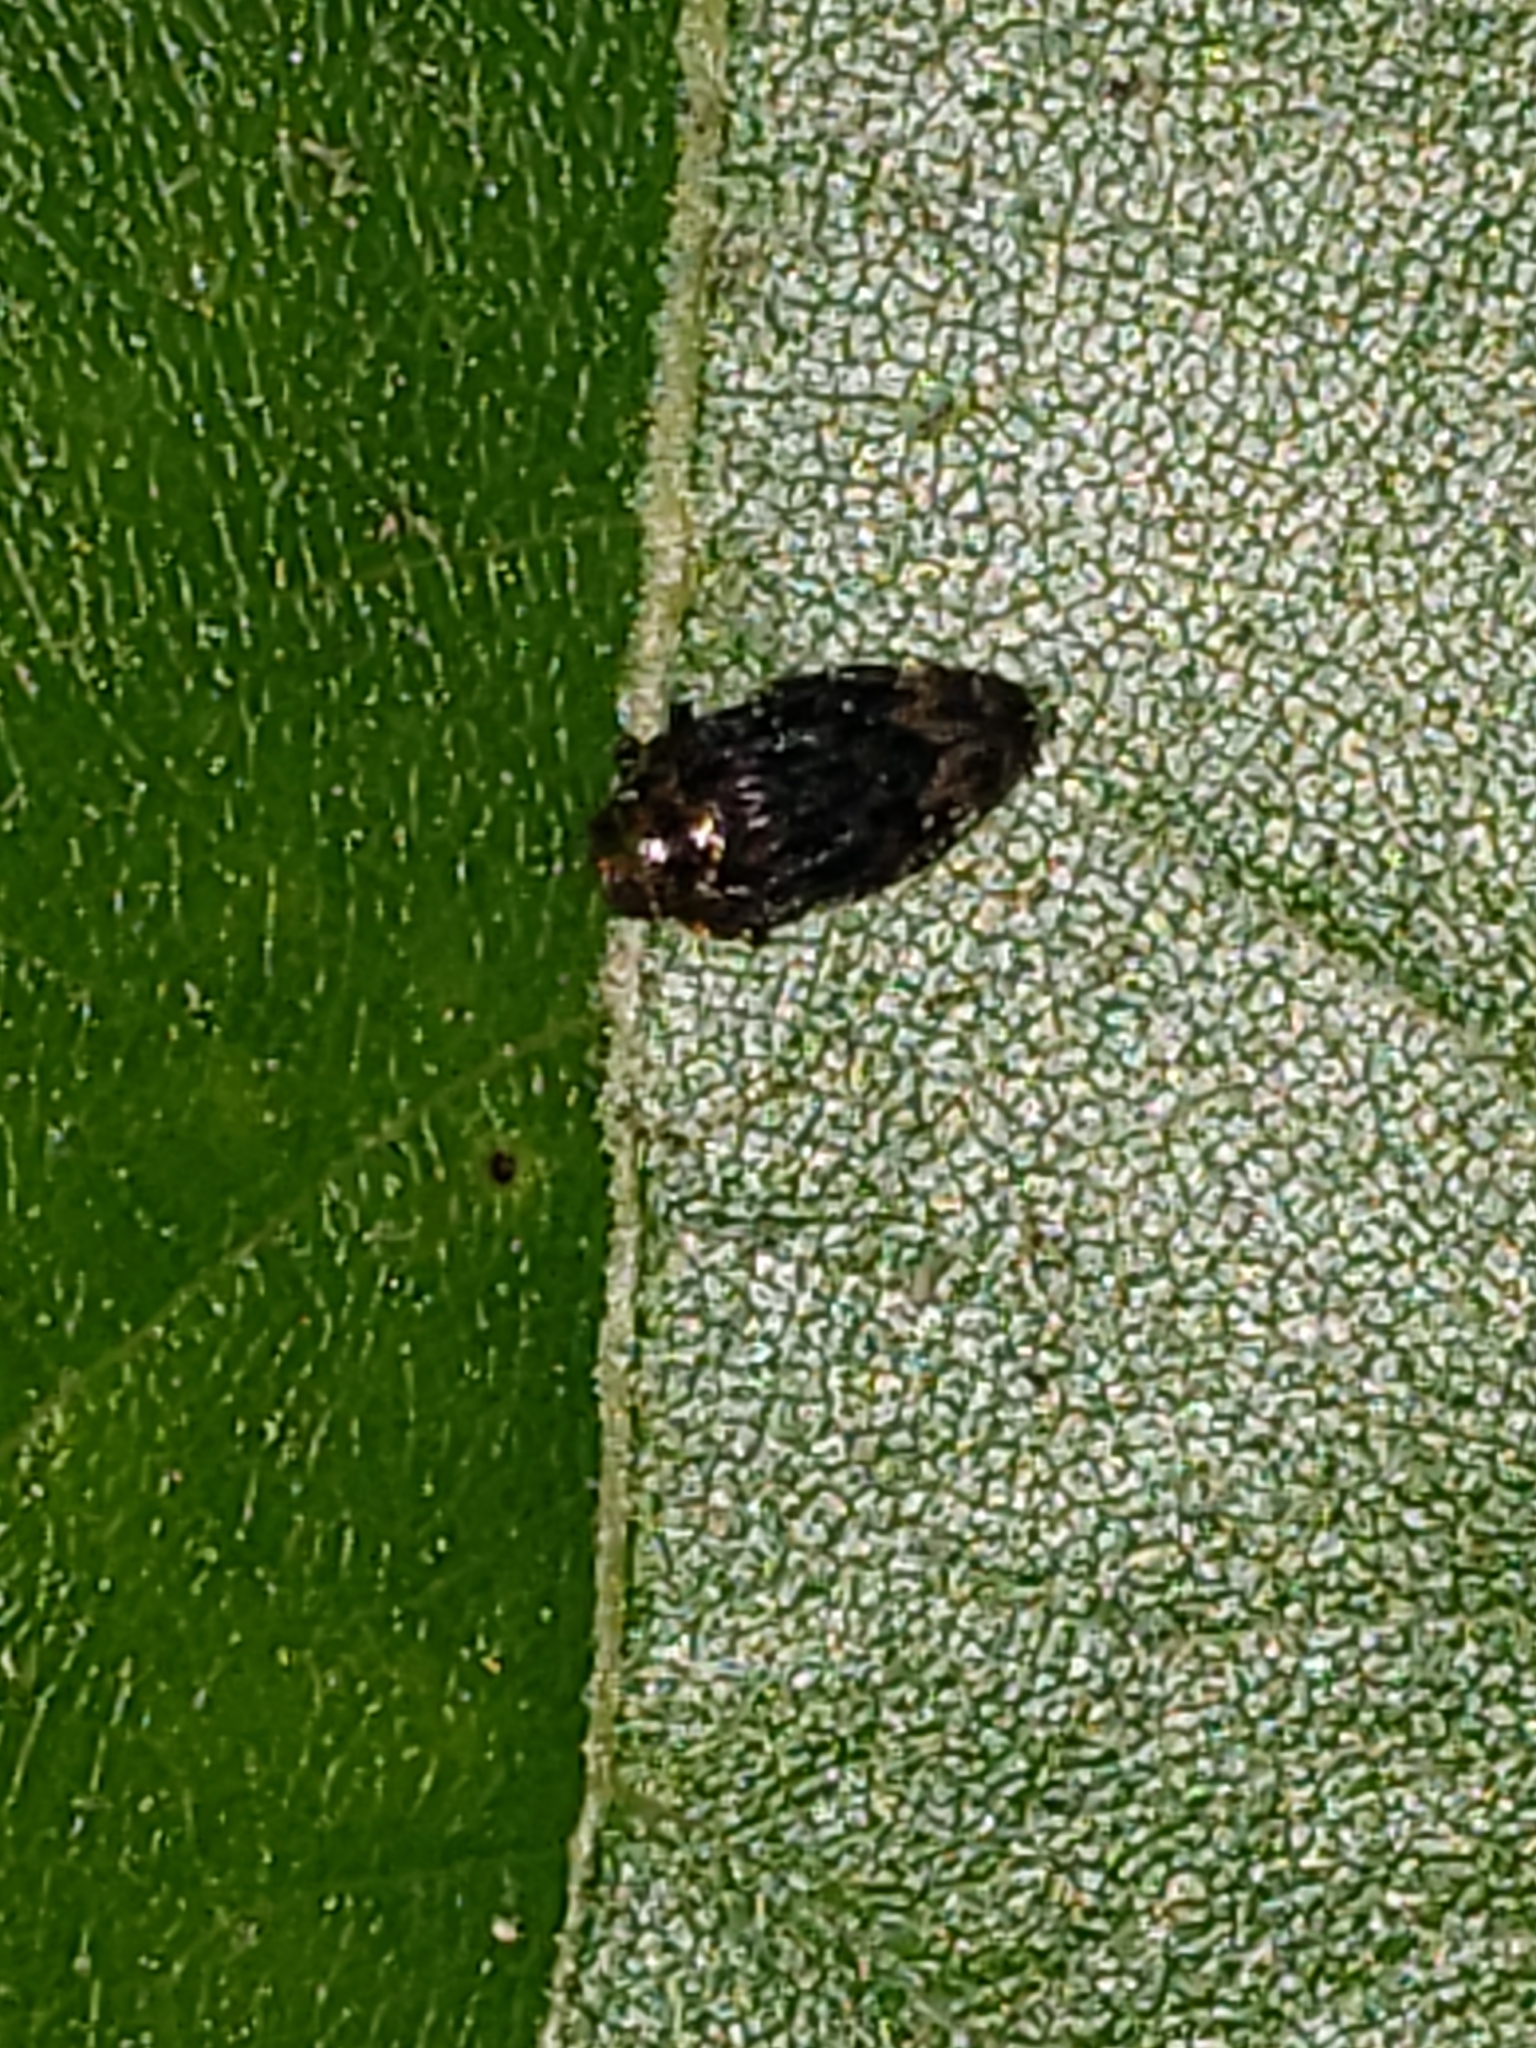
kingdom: Animalia
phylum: Arthropoda
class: Insecta
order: Coleoptera
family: Buprestidae
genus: Brachys
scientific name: Brachys aerosus
